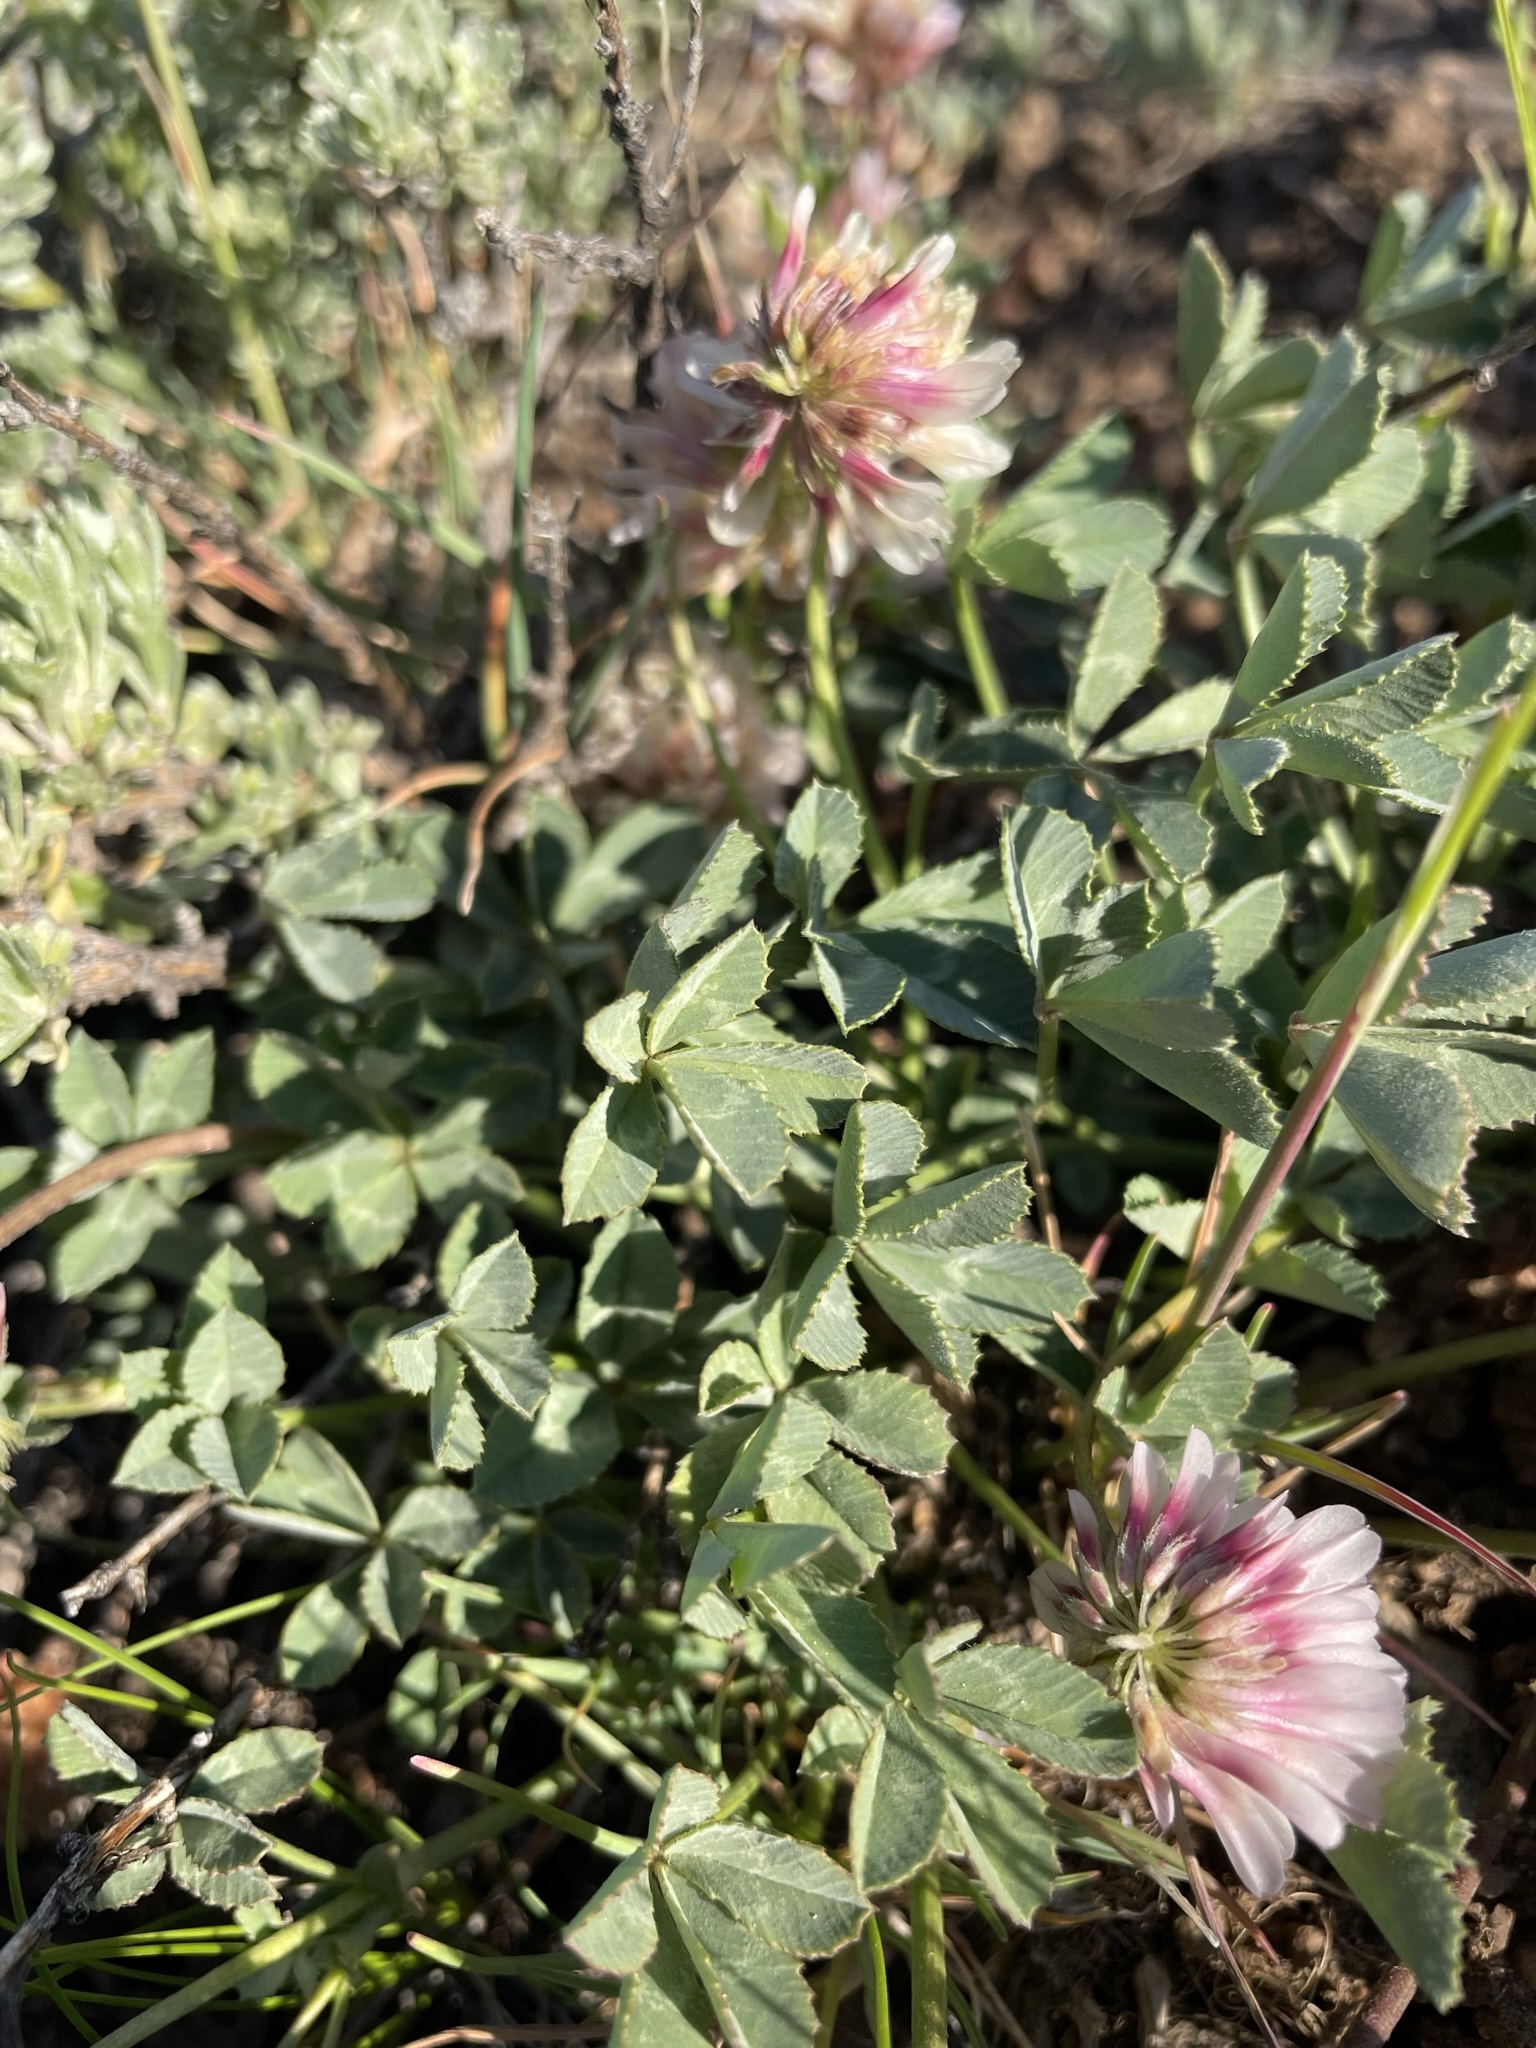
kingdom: Plantae
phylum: Tracheophyta
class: Magnoliopsida
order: Fabales
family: Fabaceae
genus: Trifolium
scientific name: Trifolium lemmonii
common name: Lemmon's clover
